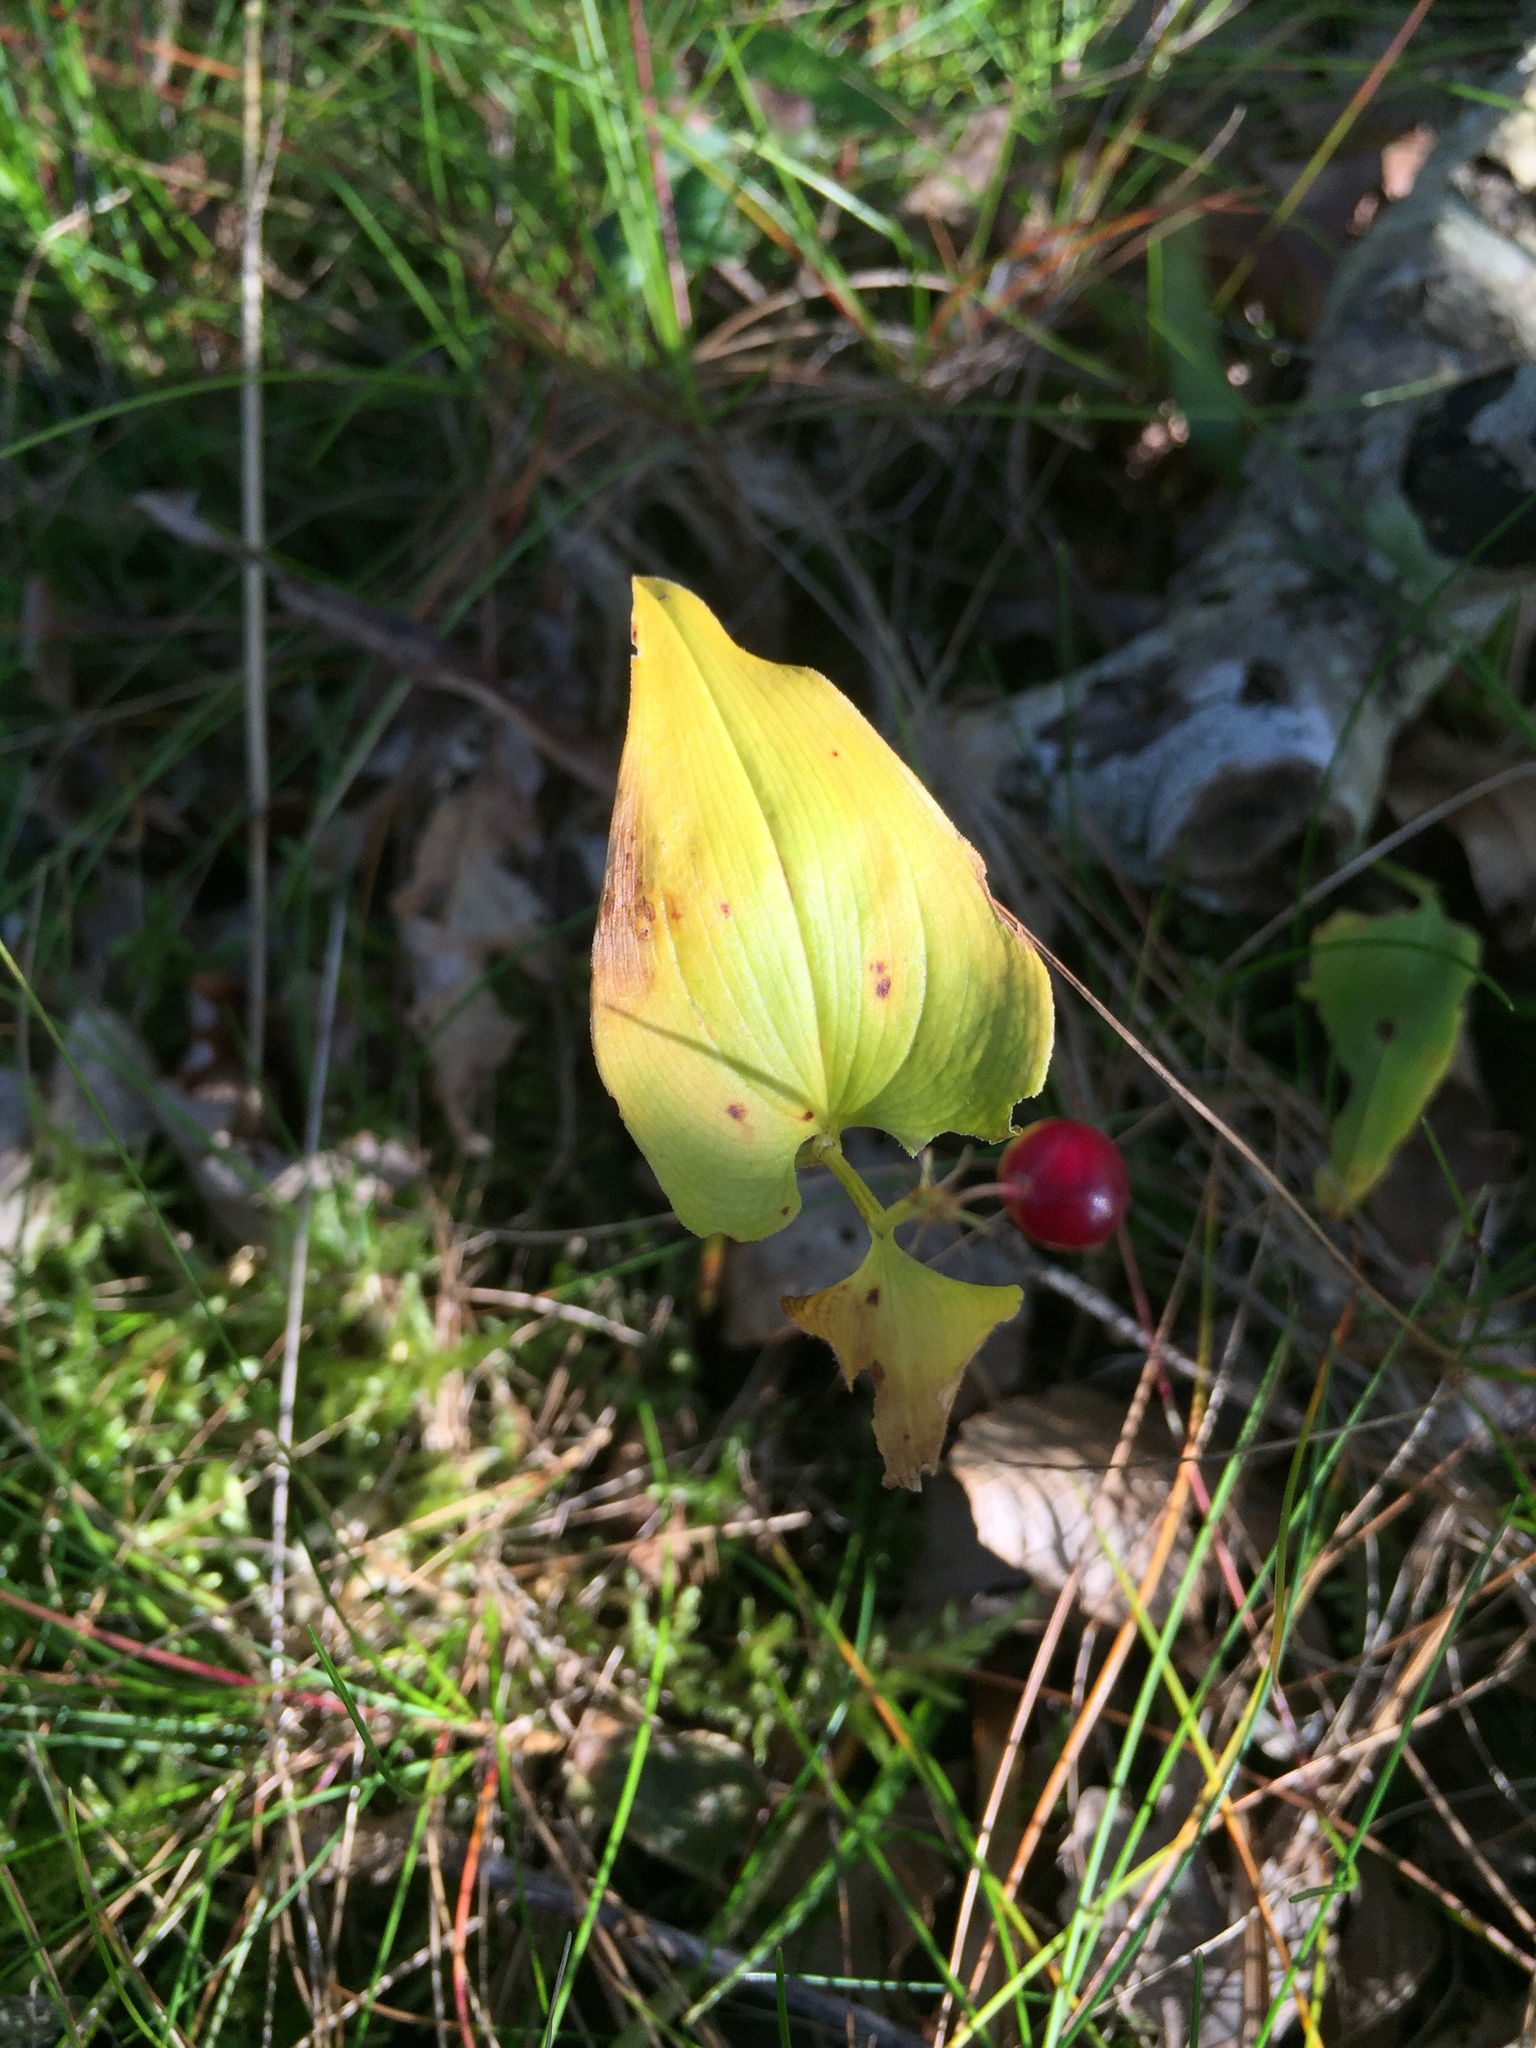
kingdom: Plantae
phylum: Tracheophyta
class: Liliopsida
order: Asparagales
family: Asparagaceae
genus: Maianthemum
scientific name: Maianthemum bifolium
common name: May lily
